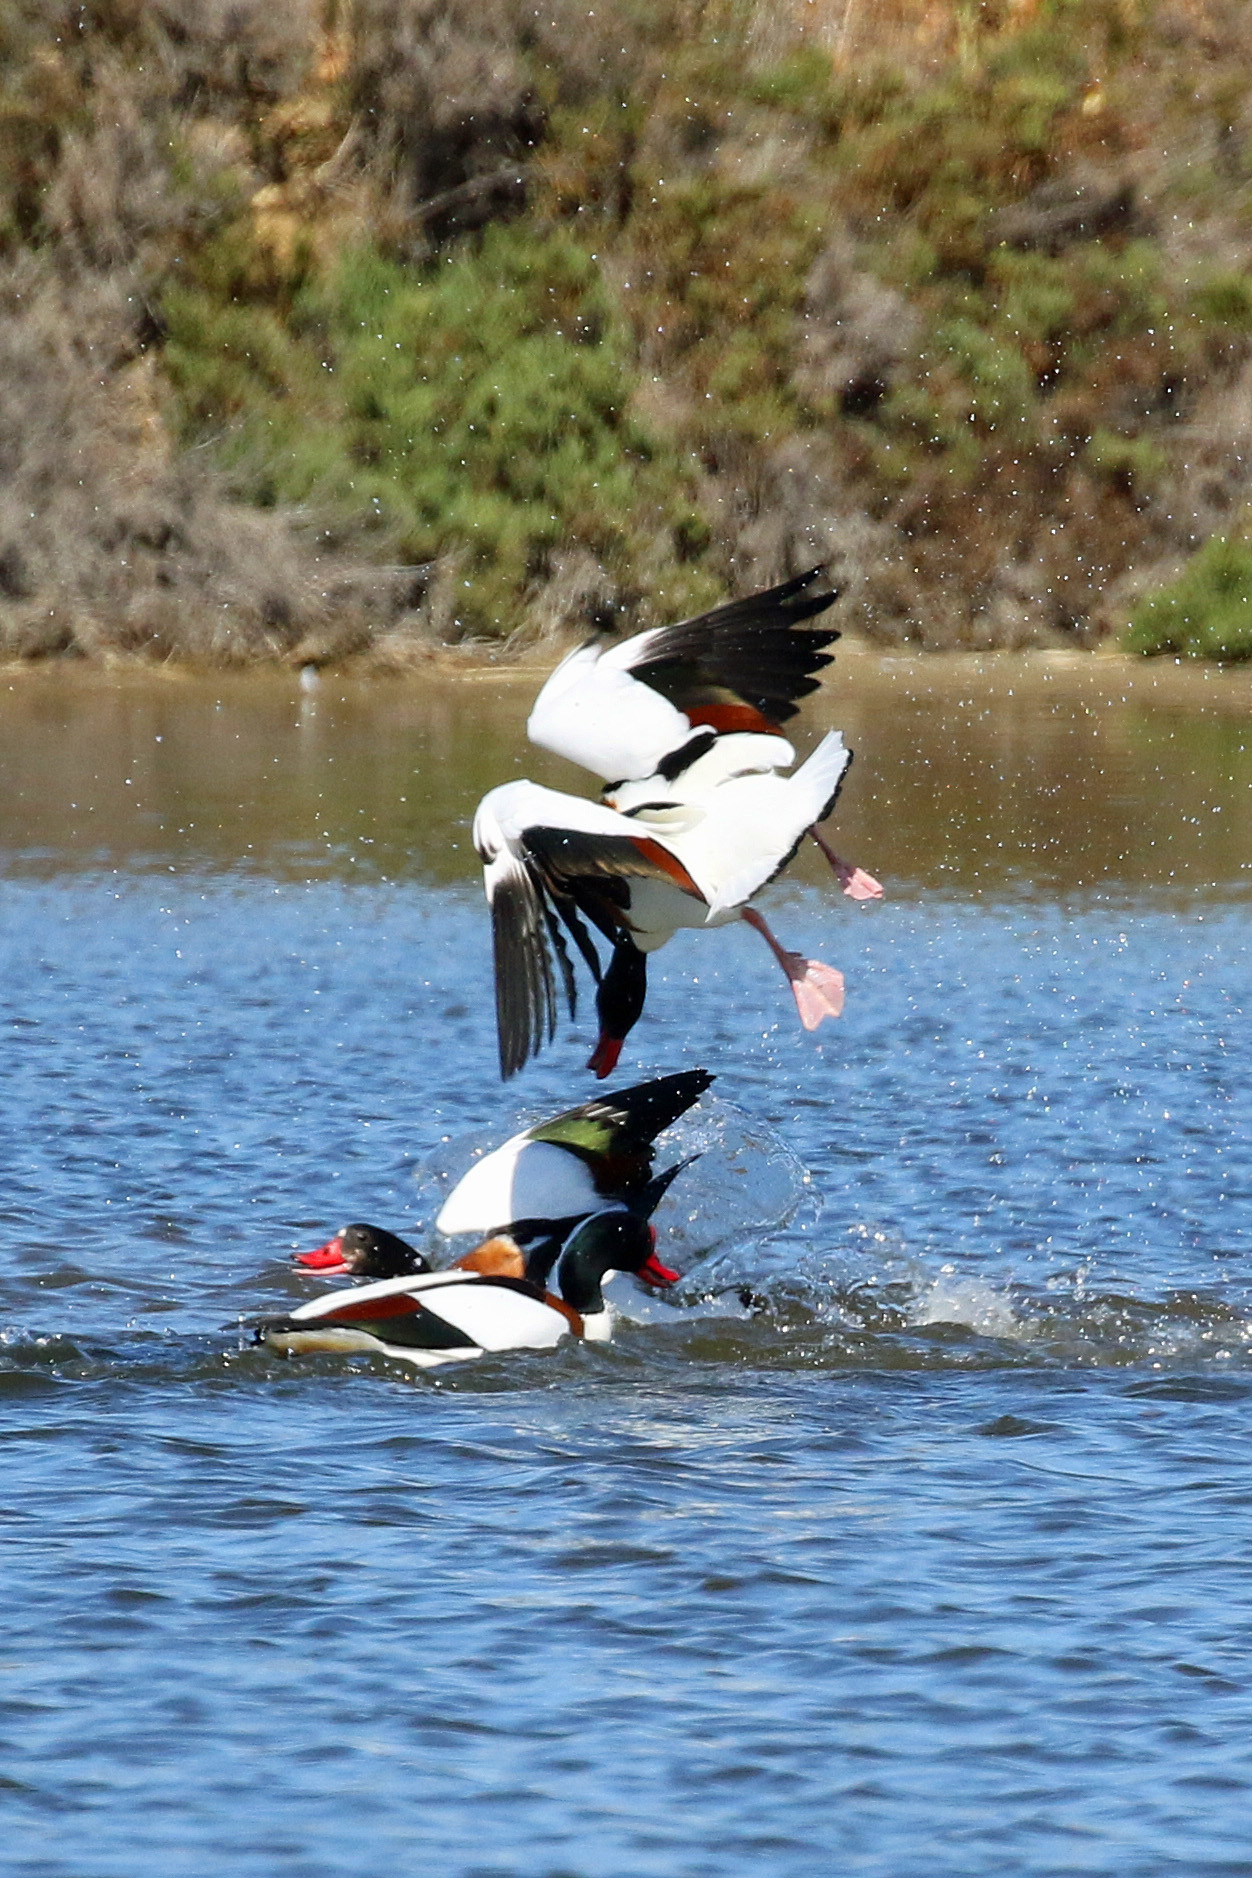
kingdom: Animalia
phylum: Chordata
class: Aves
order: Anseriformes
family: Anatidae
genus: Tadorna
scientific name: Tadorna tadorna
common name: Common shelduck
